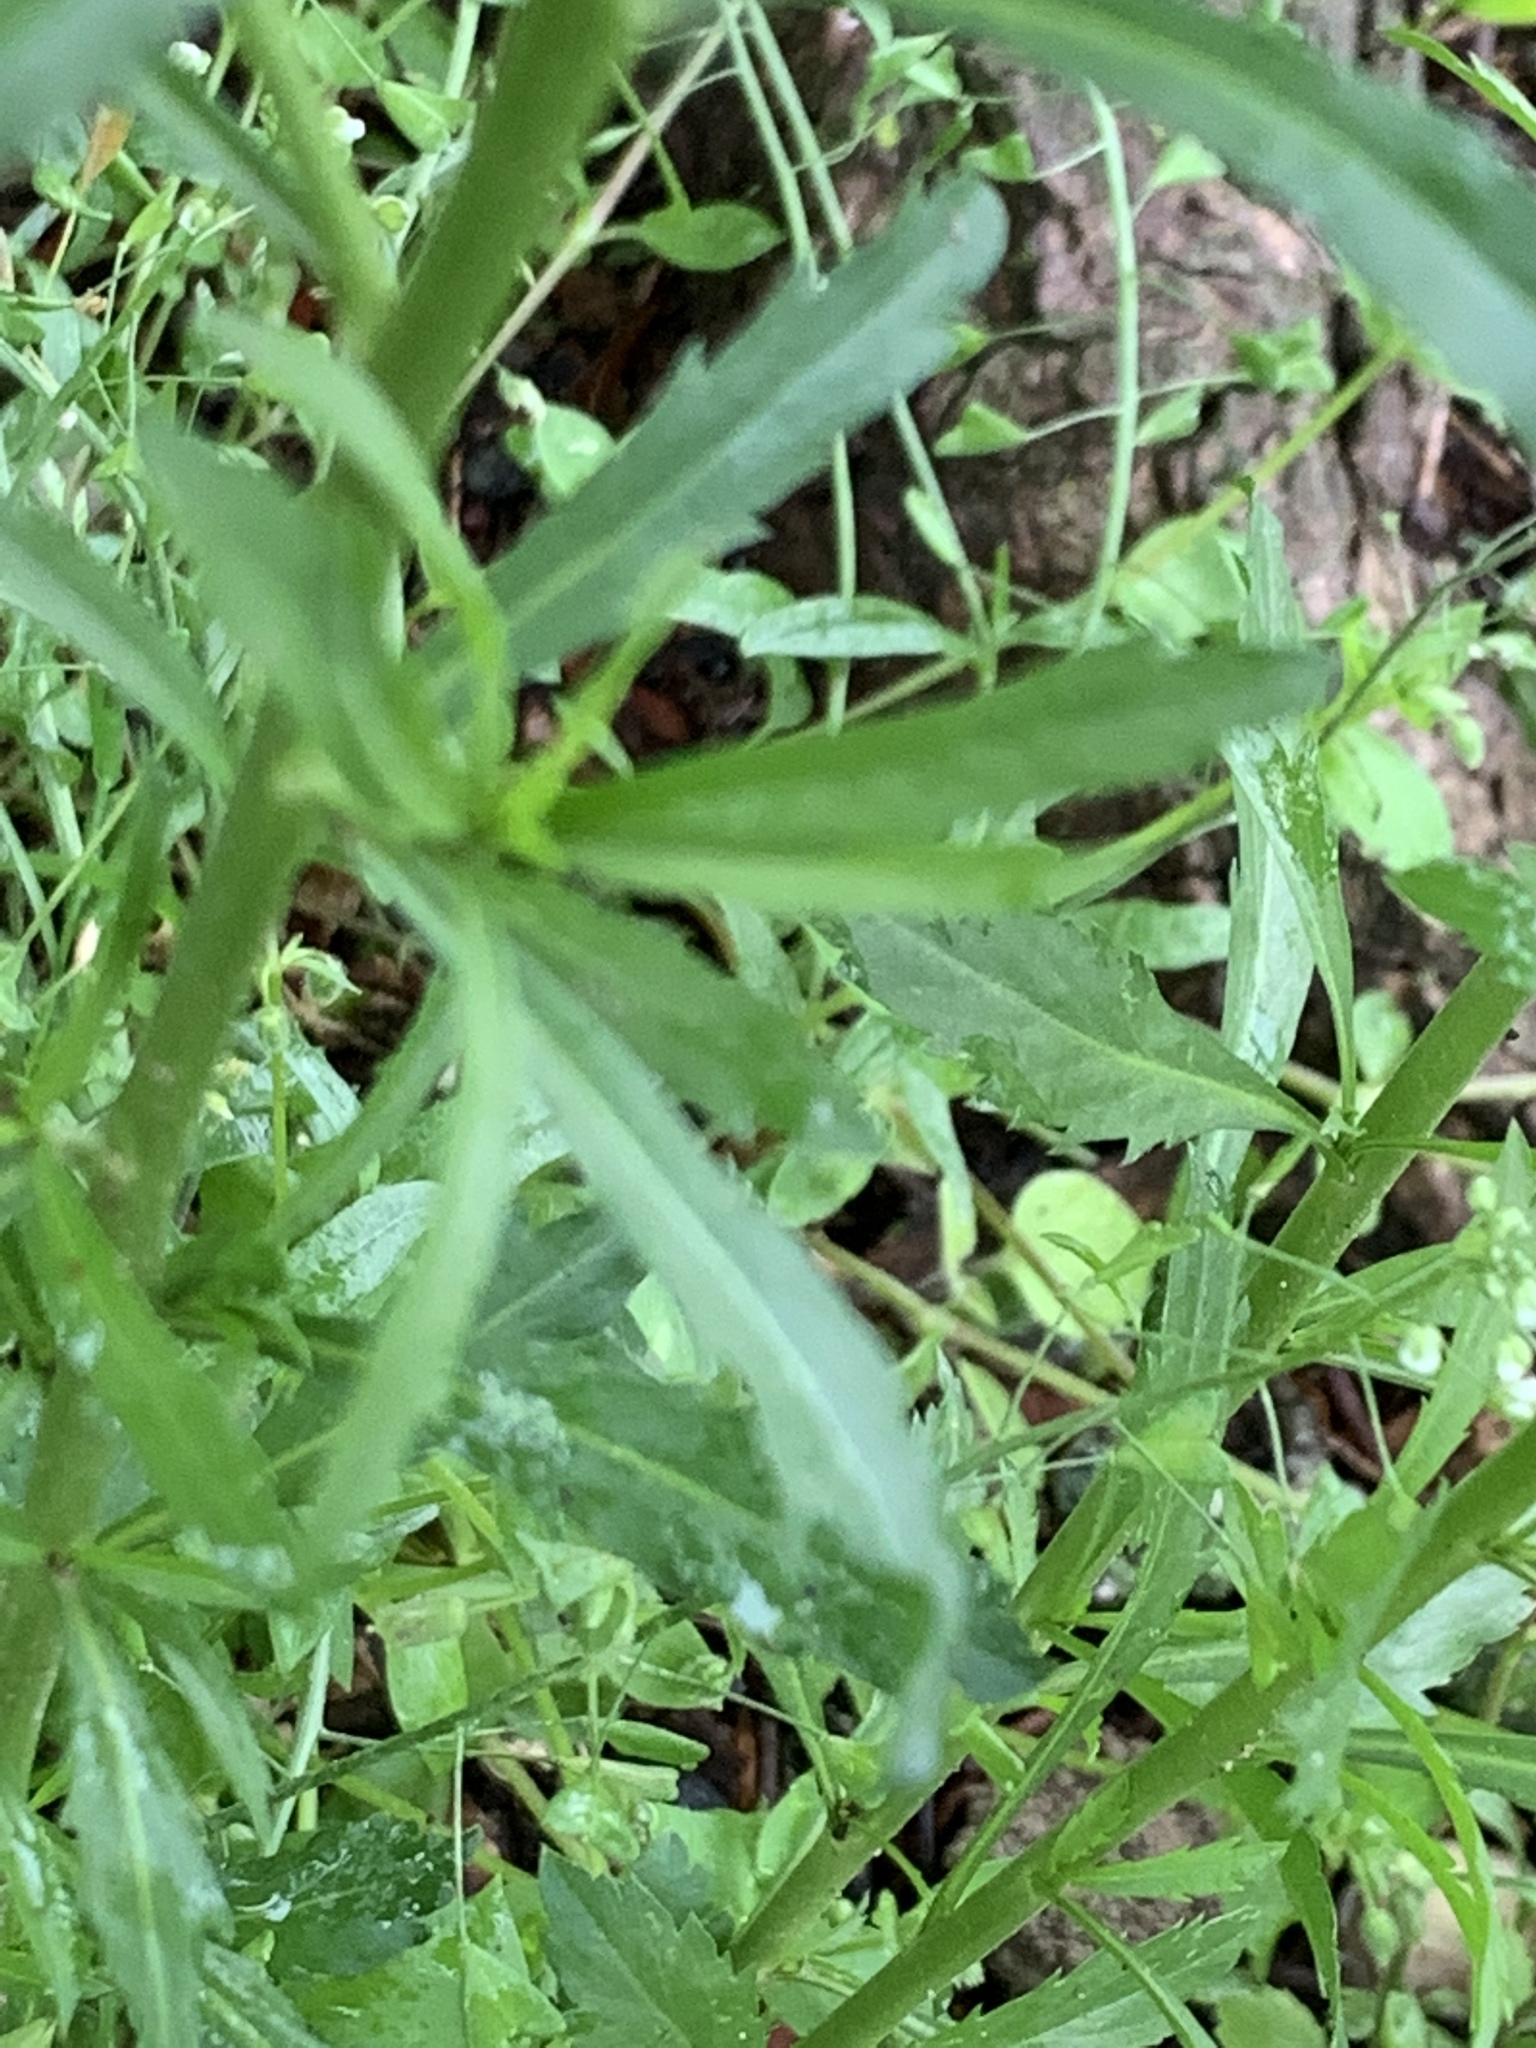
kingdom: Plantae
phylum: Tracheophyta
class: Magnoliopsida
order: Brassicales
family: Brassicaceae
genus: Lepidium
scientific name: Lepidium virginicum
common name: Least pepperwort
